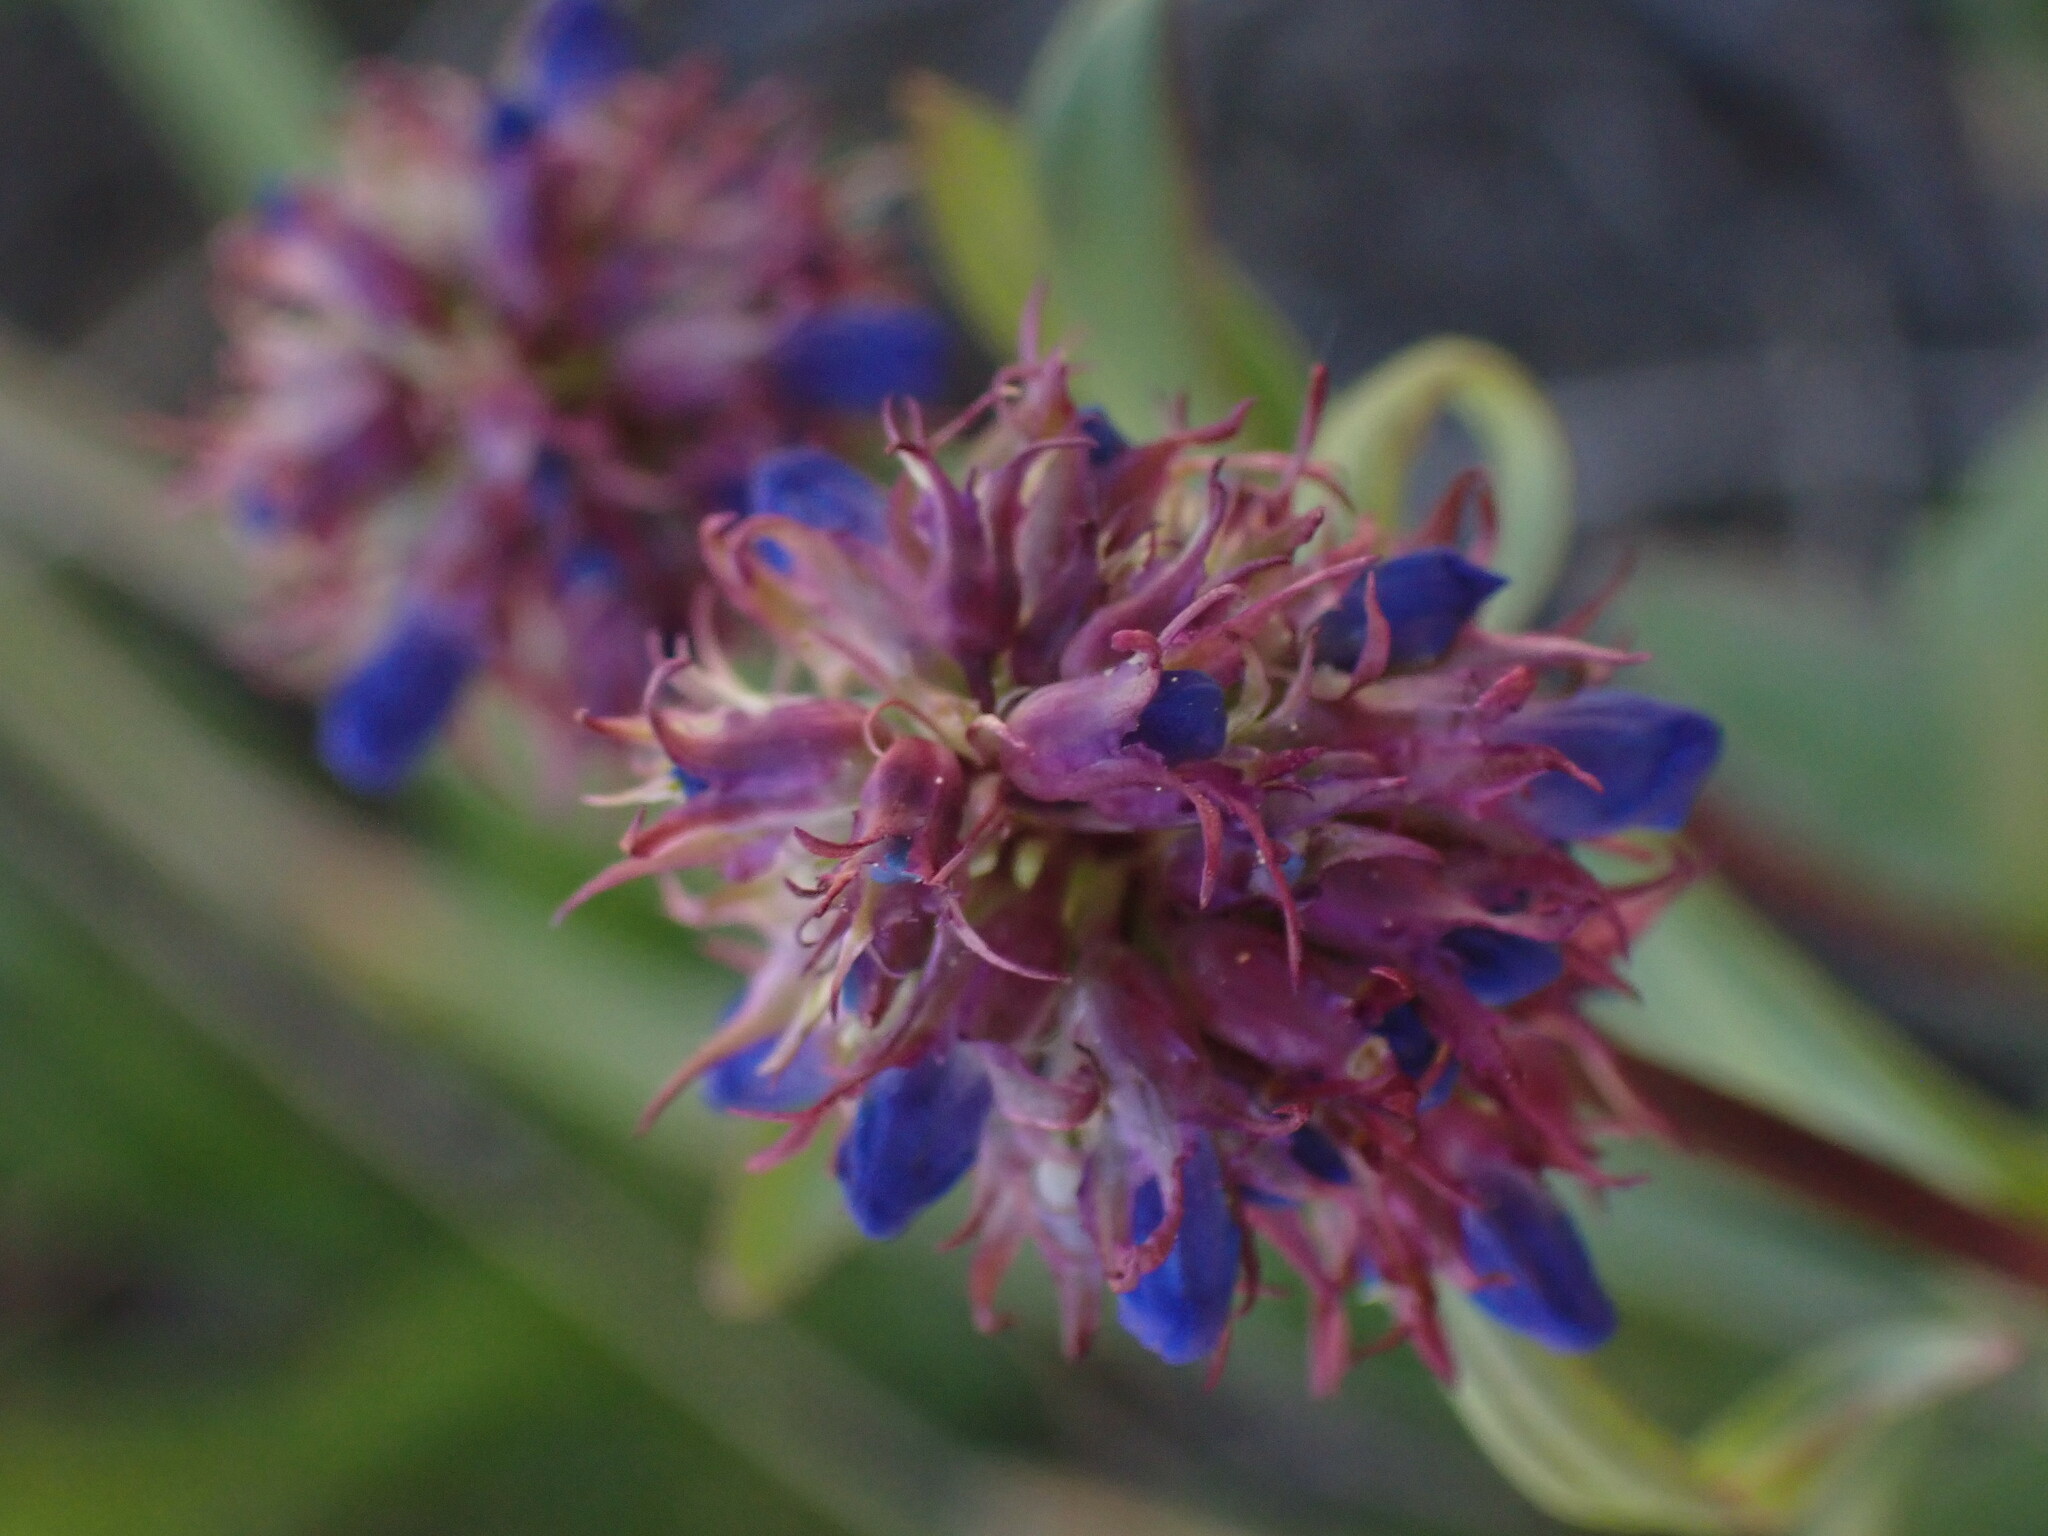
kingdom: Plantae
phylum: Tracheophyta
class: Magnoliopsida
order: Lamiales
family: Plantaginaceae
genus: Penstemon
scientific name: Penstemon procerus
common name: Small-flower penstemon
